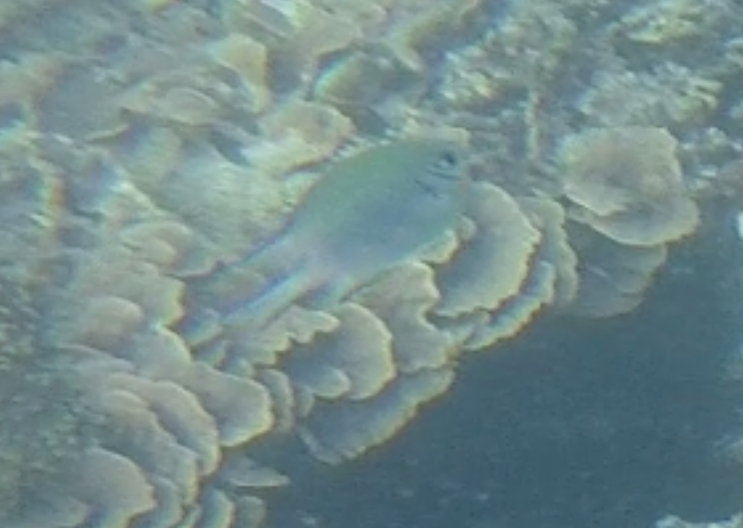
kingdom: Animalia
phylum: Chordata
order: Perciformes
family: Pomacentridae
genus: Amblyglyphidodon
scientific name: Amblyglyphidodon indicus
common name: Maldives damselfish
